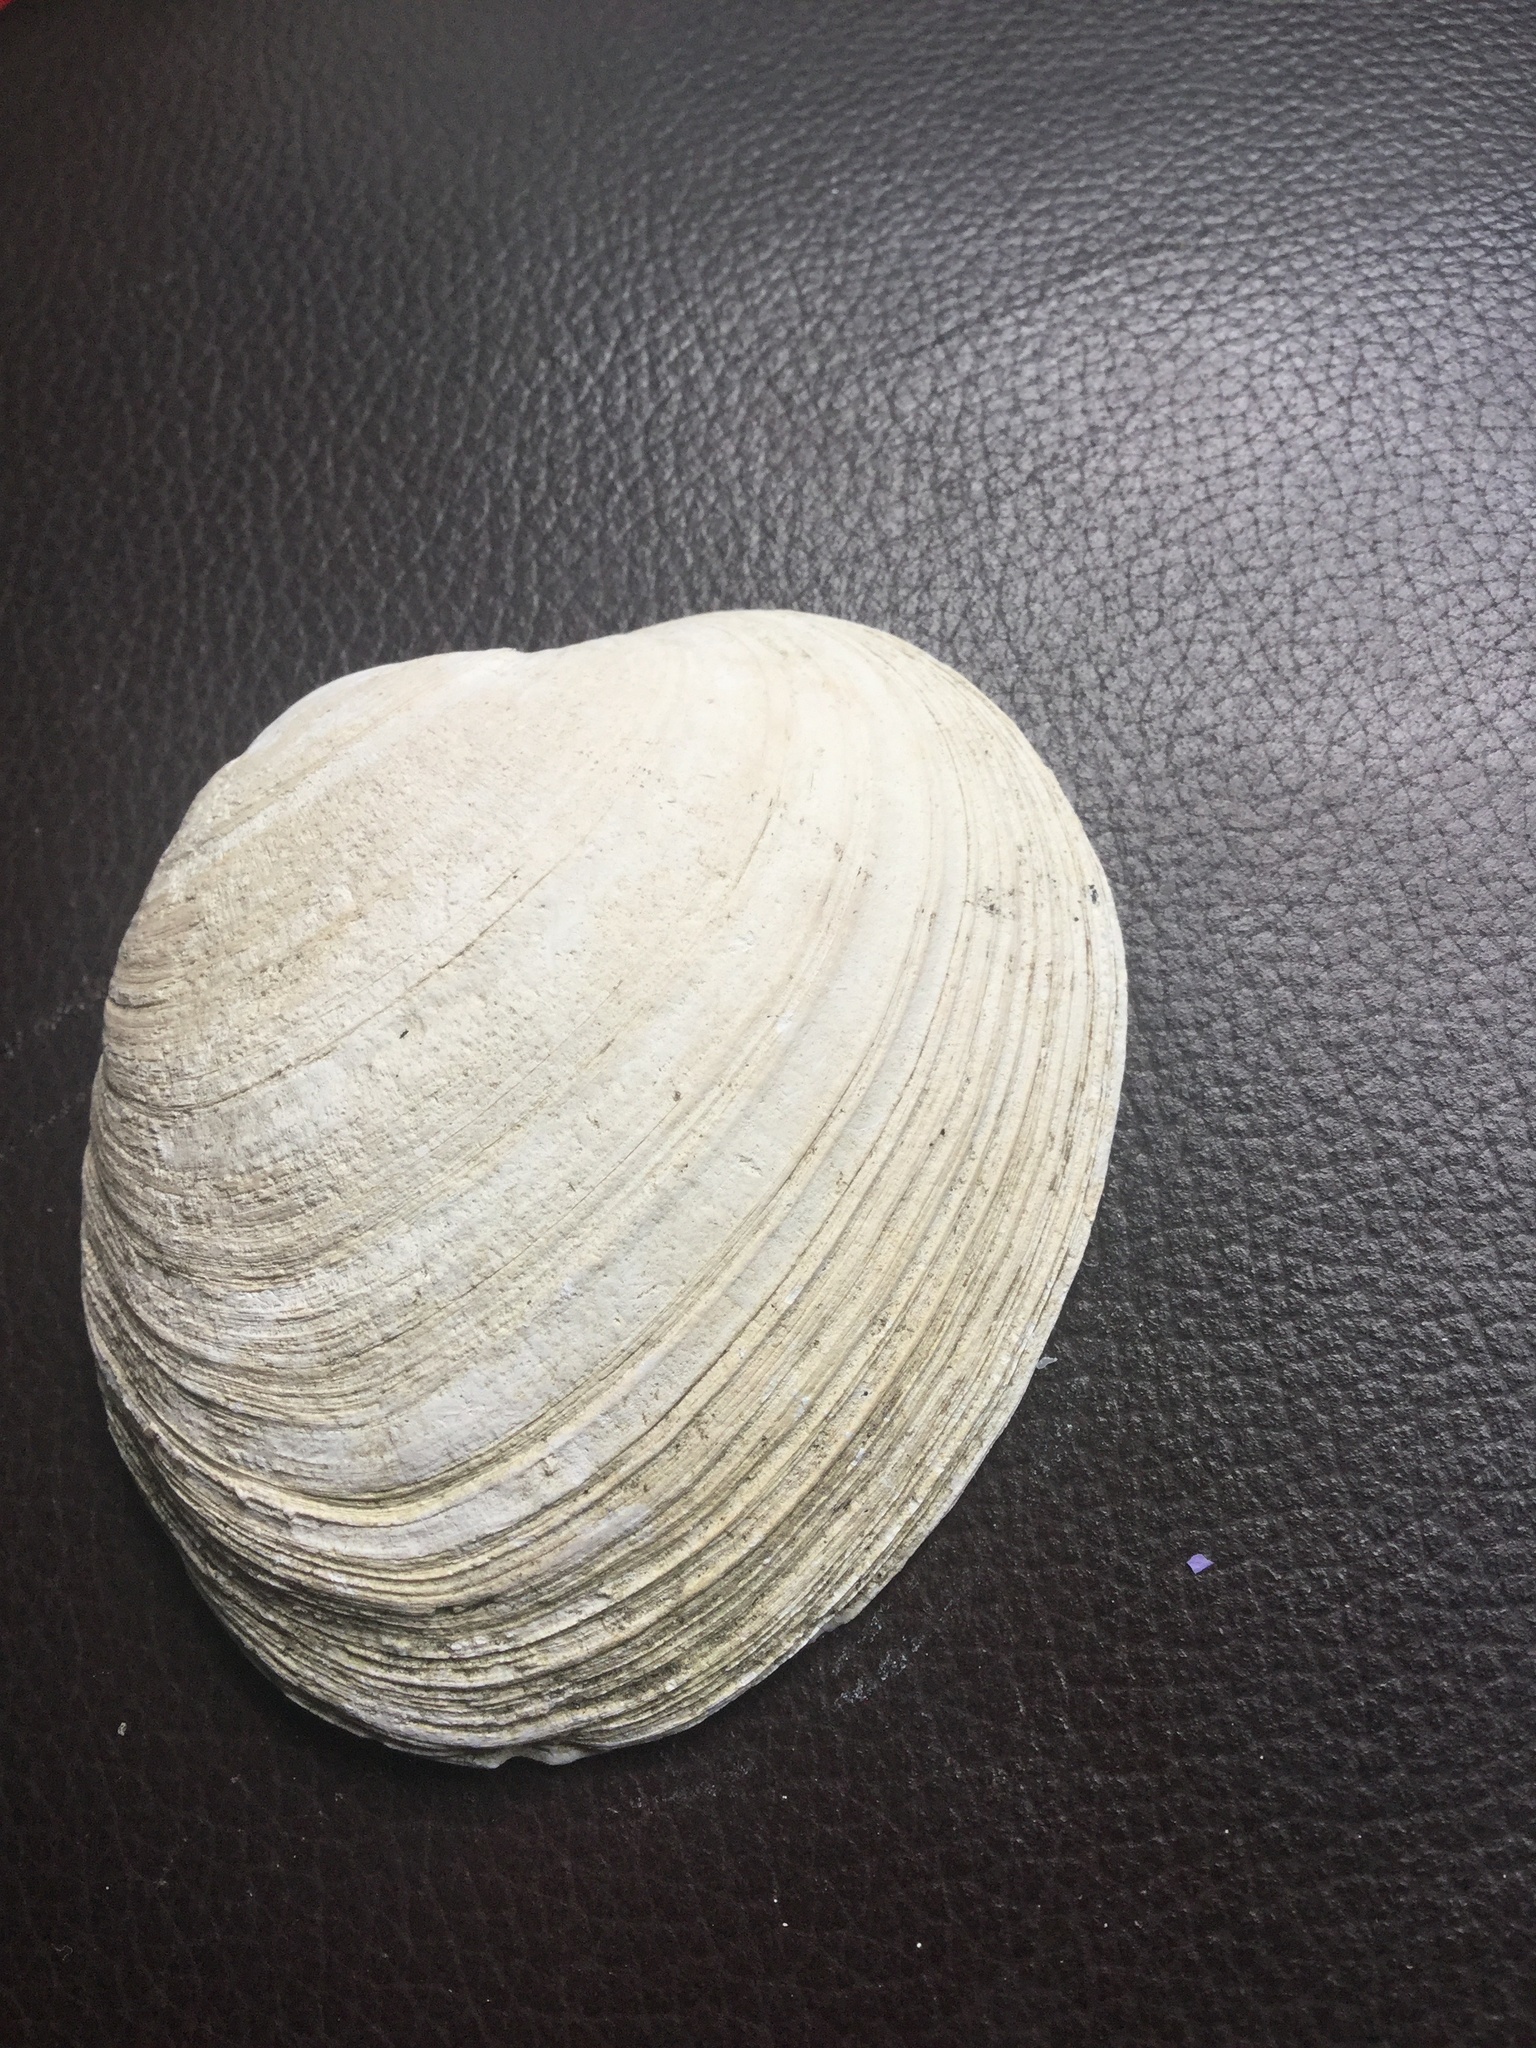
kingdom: Animalia
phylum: Mollusca
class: Bivalvia
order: Venerida
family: Veneridae
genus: Saxidomus
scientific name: Saxidomus gigantea
